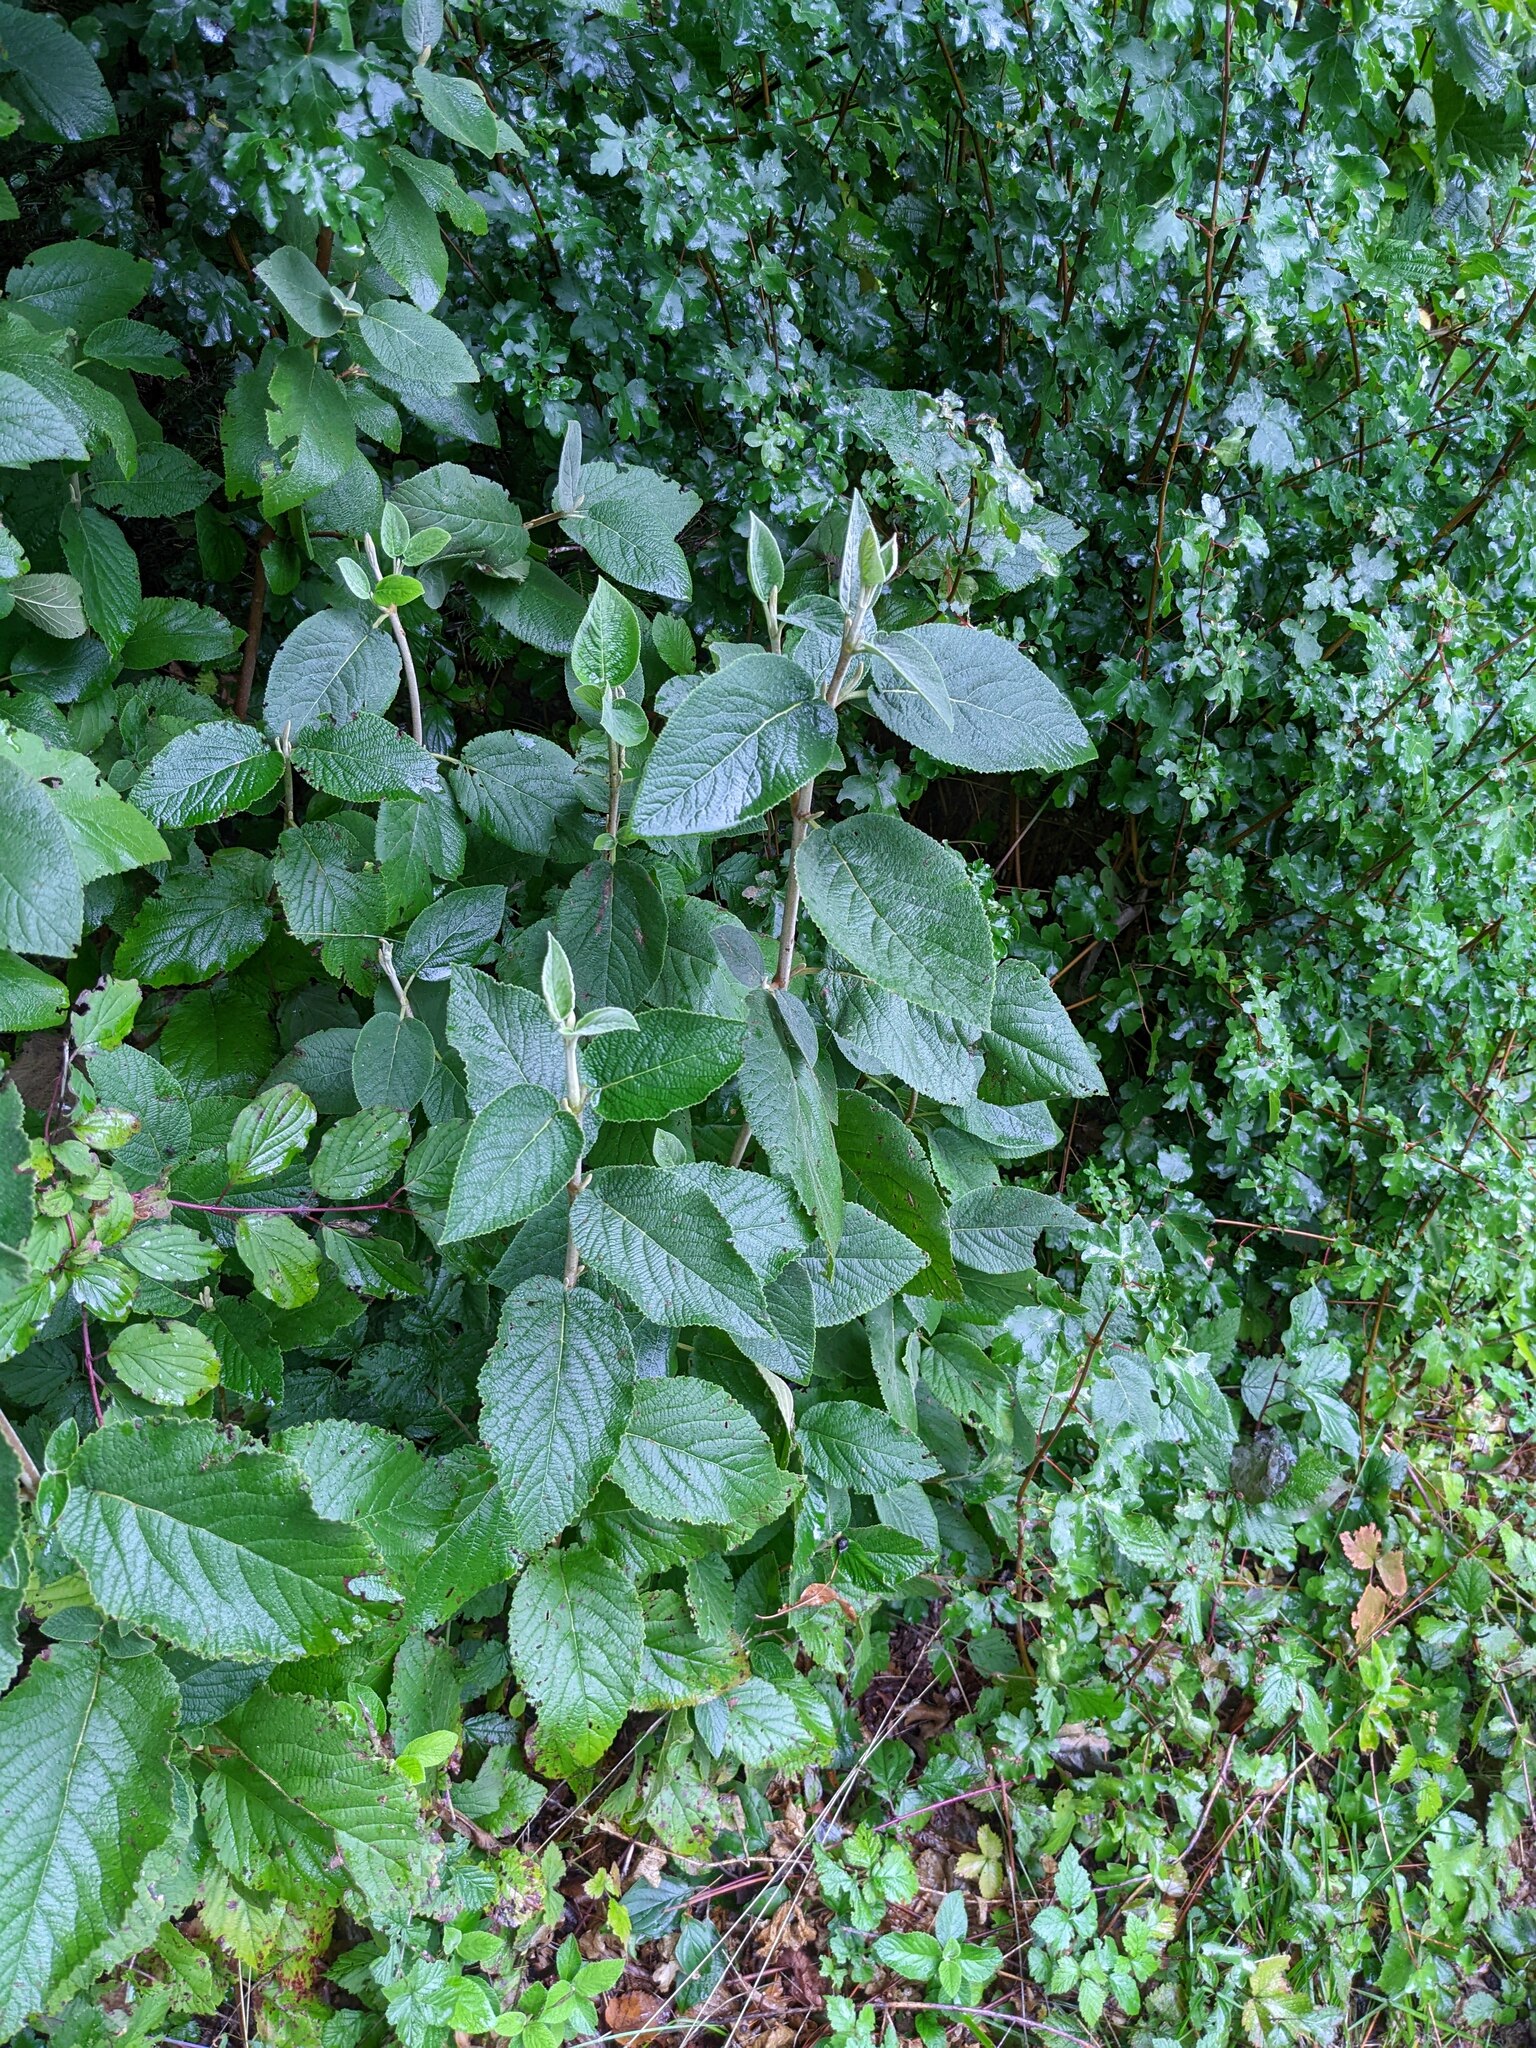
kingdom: Plantae
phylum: Tracheophyta
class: Magnoliopsida
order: Dipsacales
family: Viburnaceae
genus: Viburnum
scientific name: Viburnum lantana
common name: Wayfaring tree
